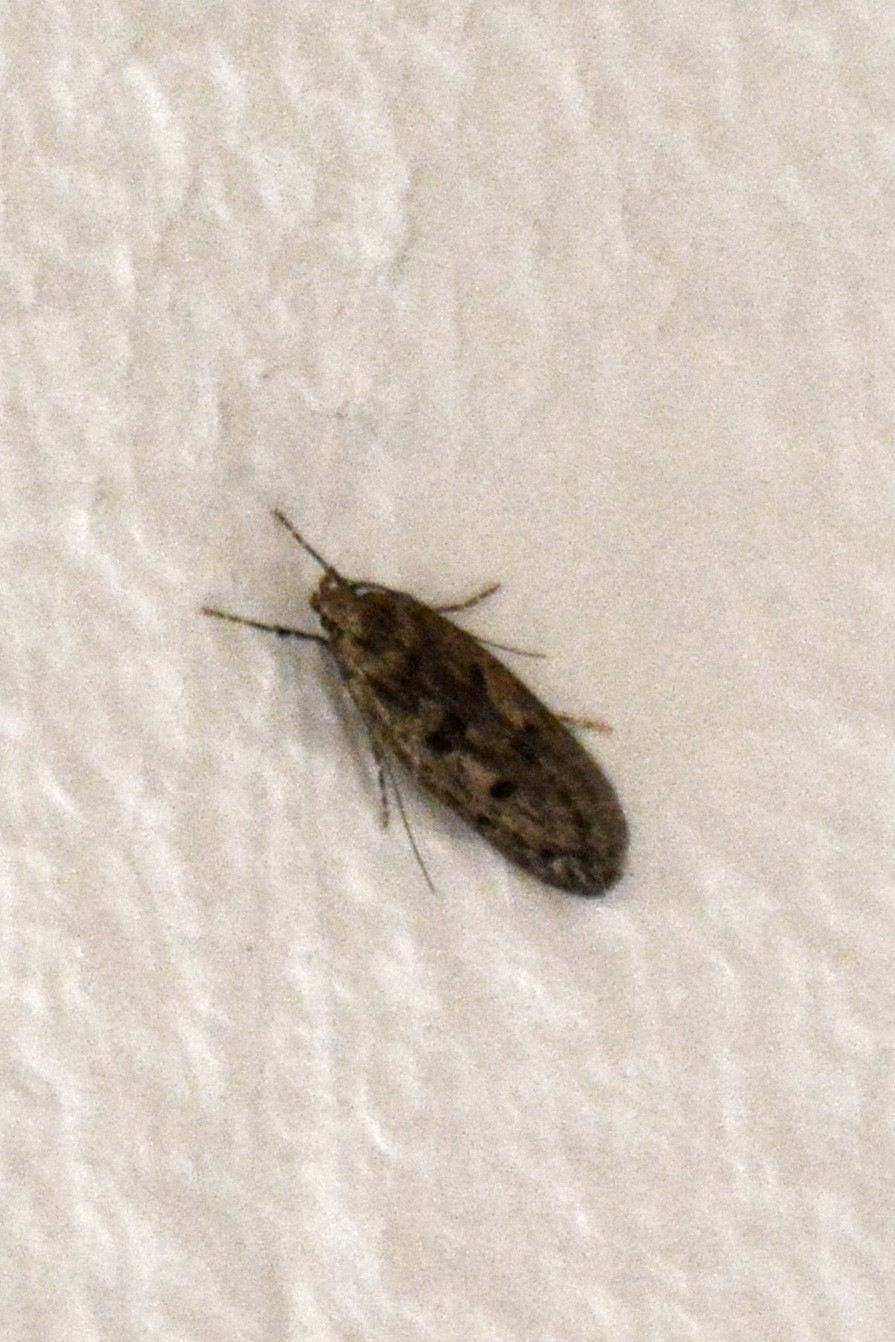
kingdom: Animalia
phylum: Arthropoda
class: Insecta
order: Lepidoptera
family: Oecophoridae
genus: Hofmannophila
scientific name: Hofmannophila pseudospretella
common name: Brown house moth
